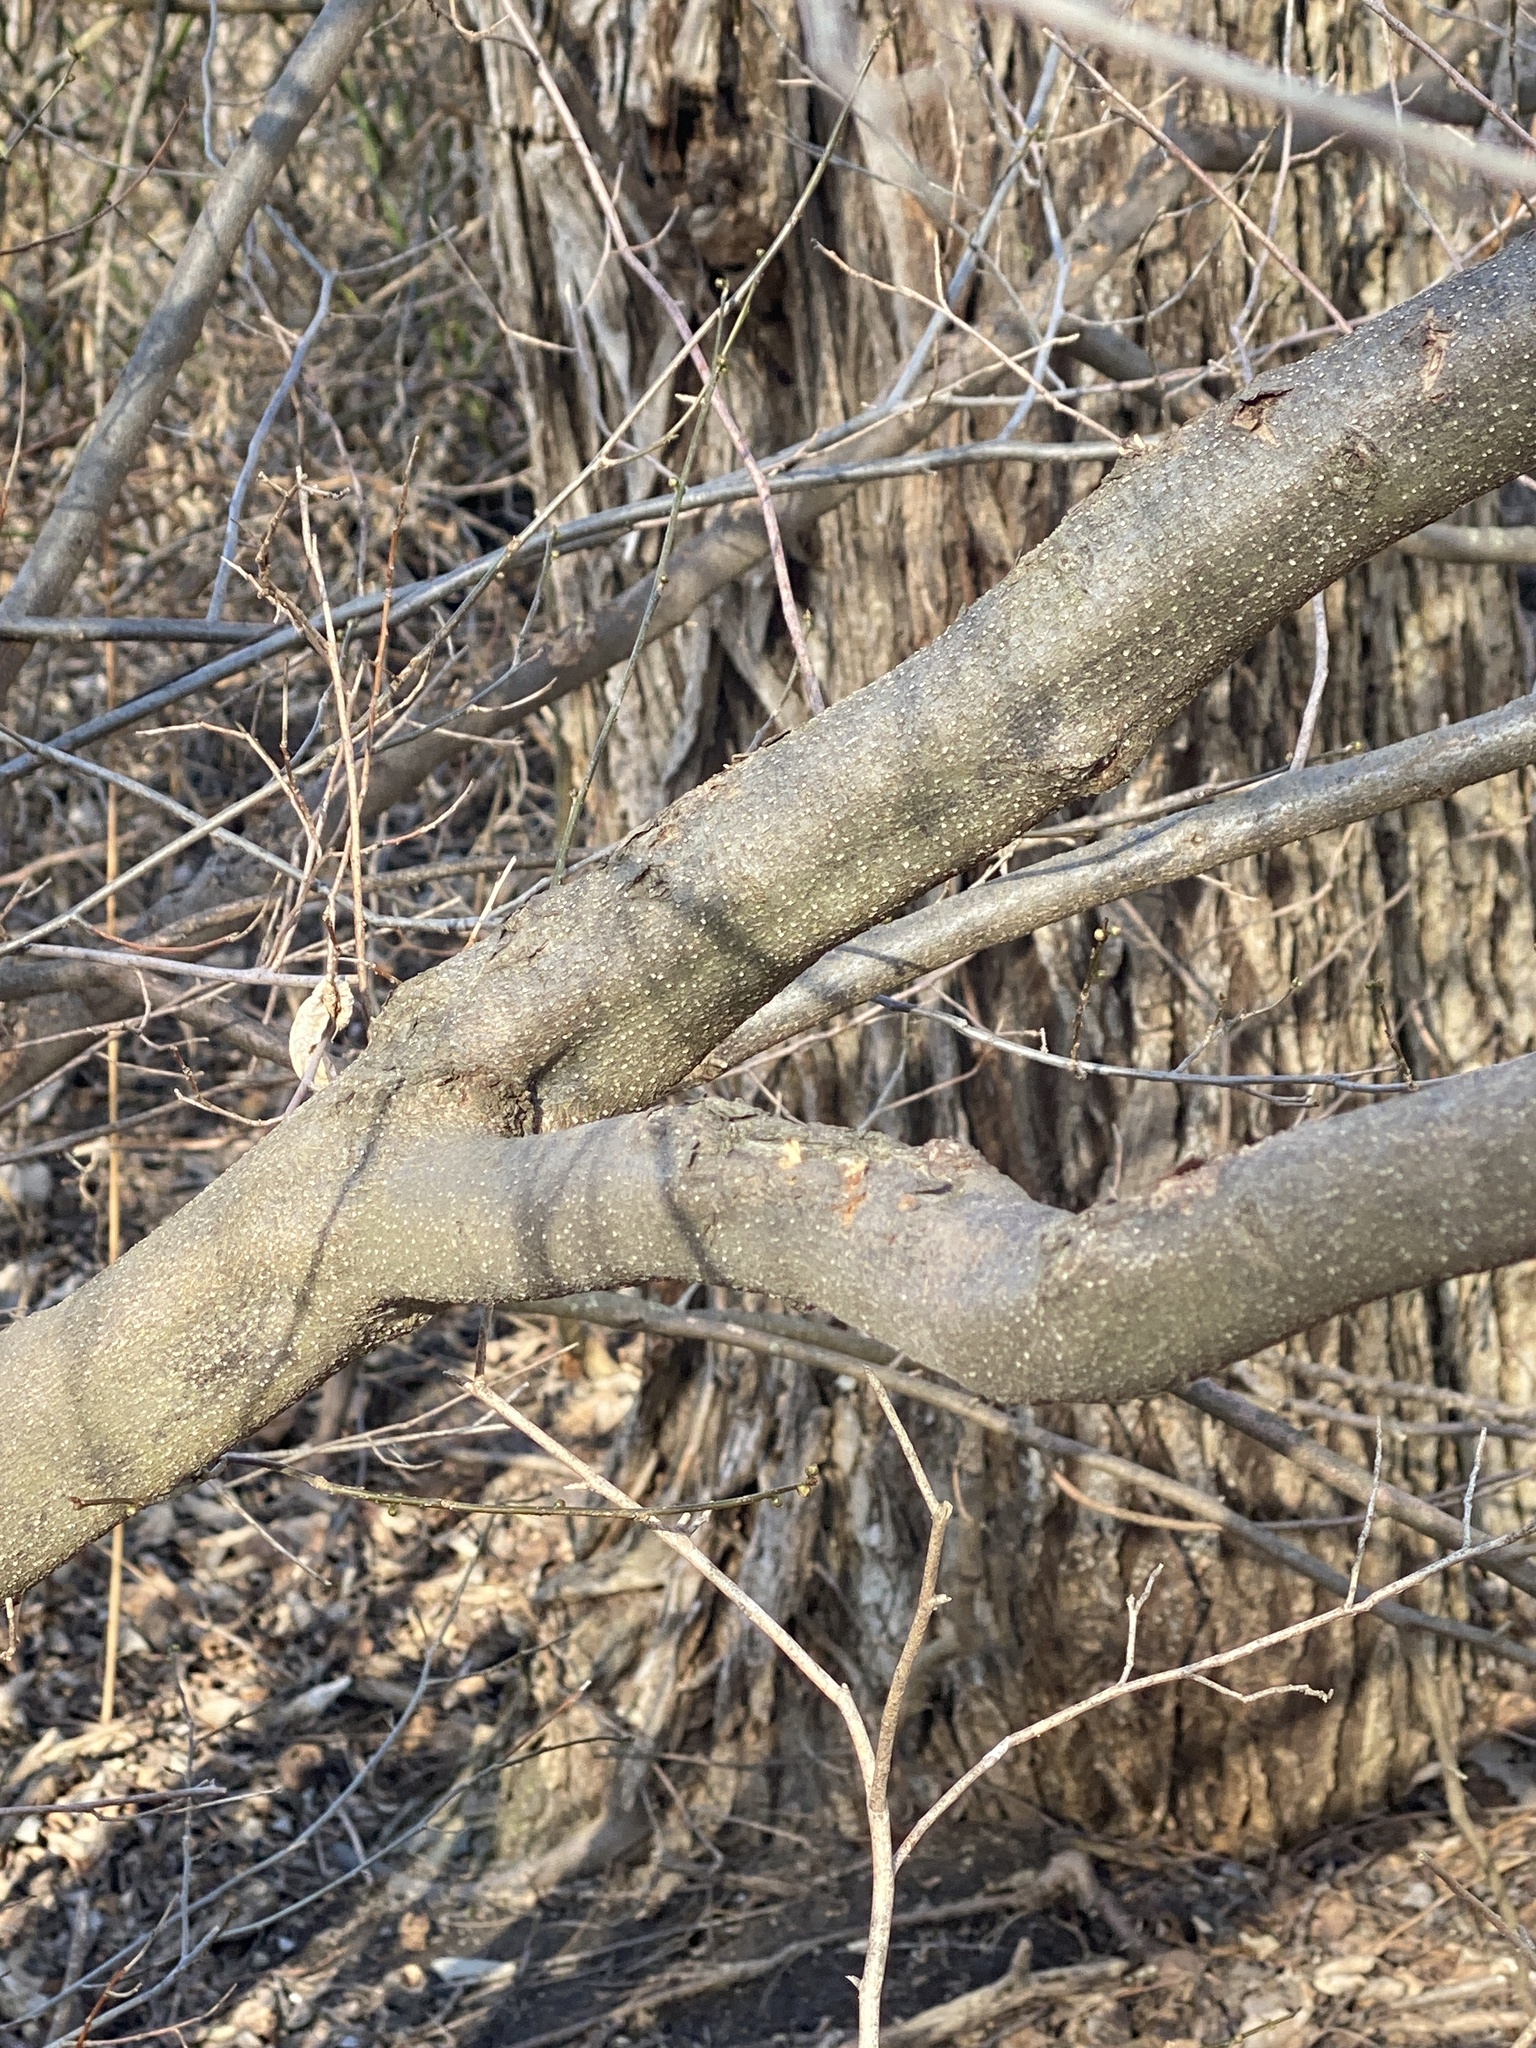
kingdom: Plantae
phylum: Tracheophyta
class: Magnoliopsida
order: Laurales
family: Lauraceae
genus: Lindera
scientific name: Lindera benzoin
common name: Spicebush
